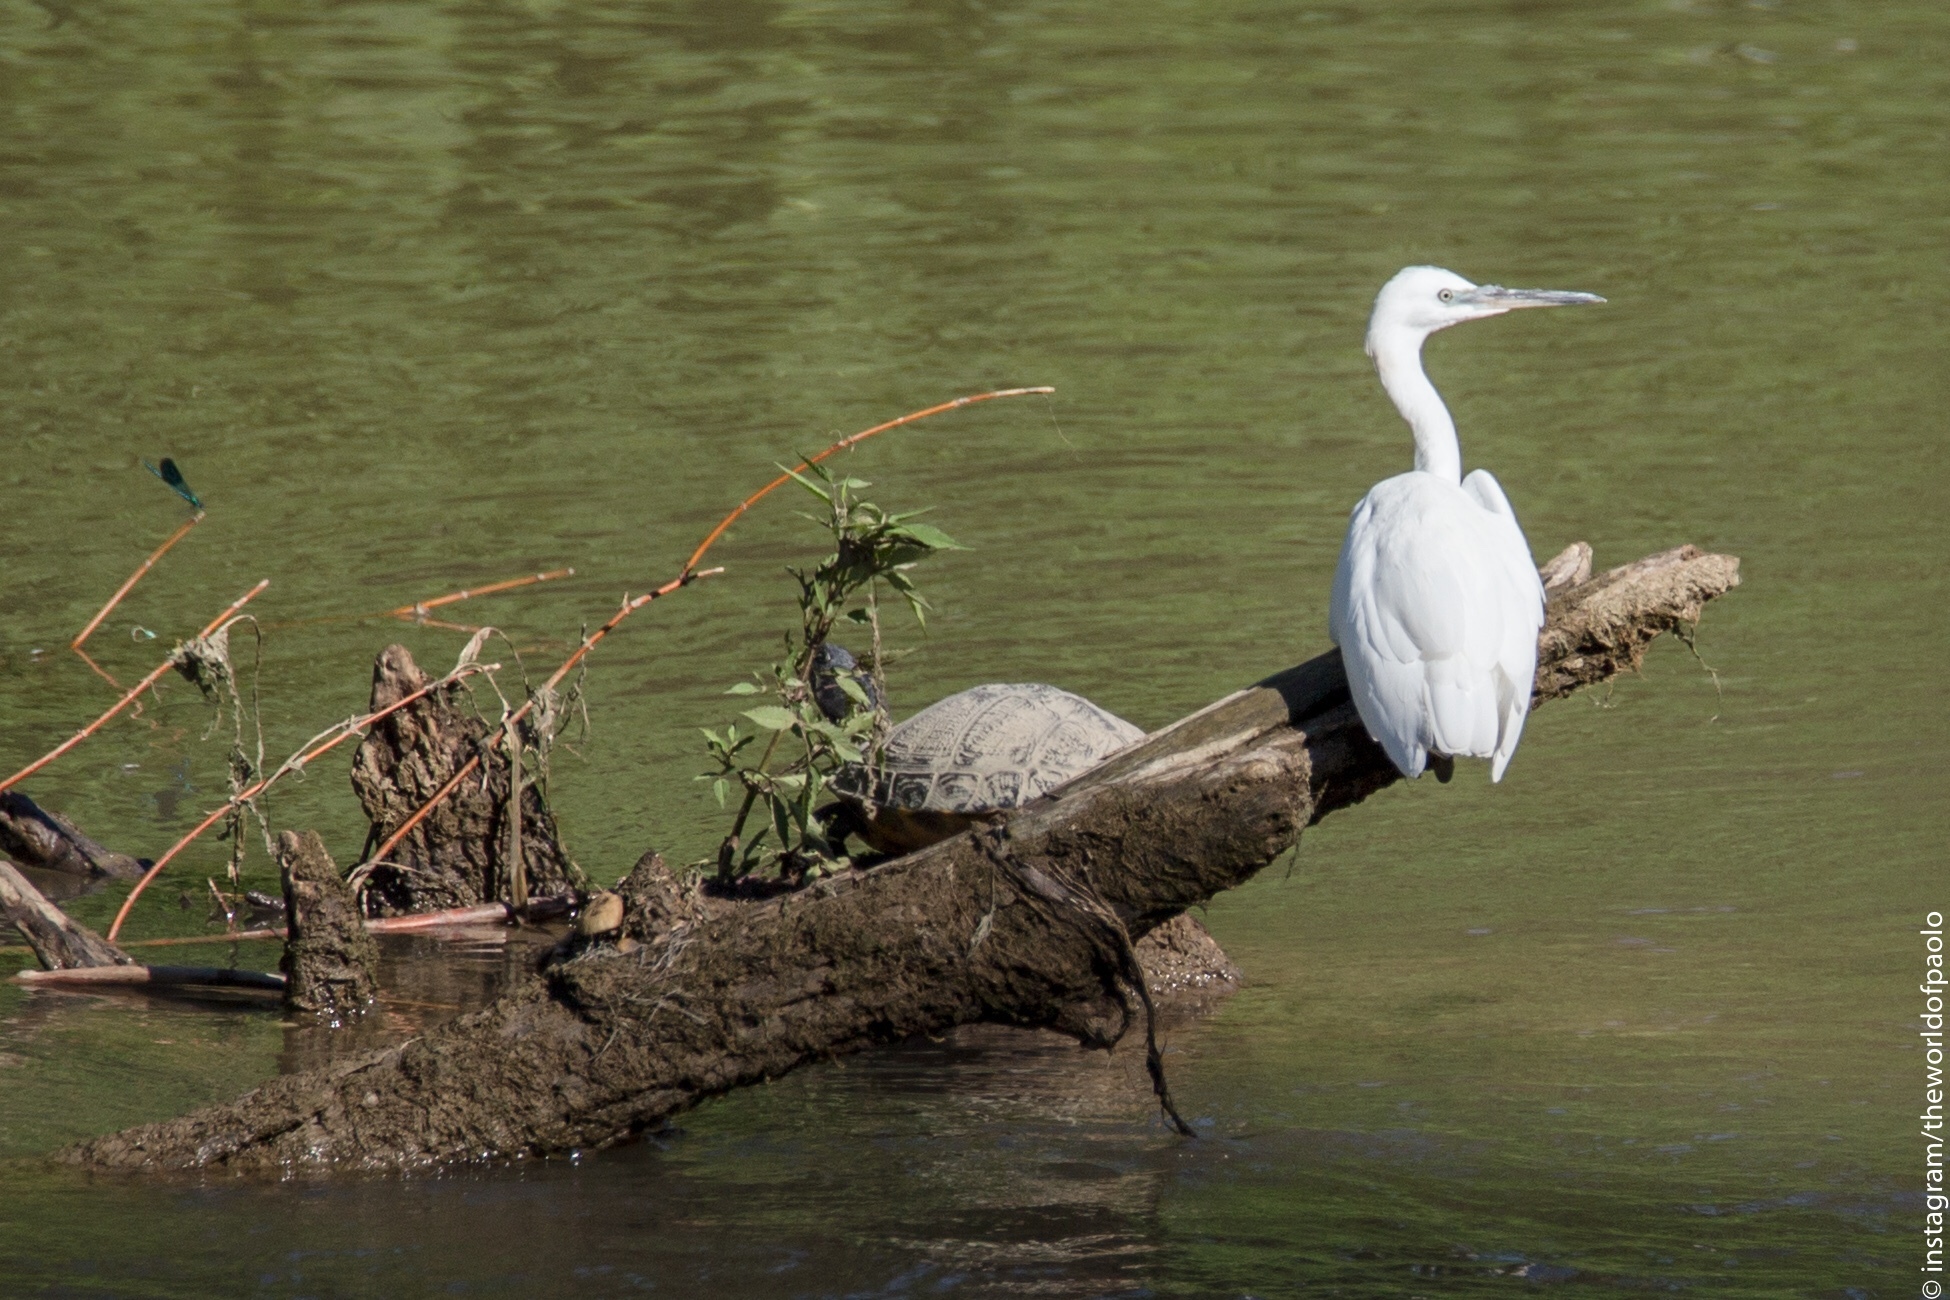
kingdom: Animalia
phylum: Chordata
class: Aves
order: Pelecaniformes
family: Ardeidae
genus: Egretta
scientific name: Egretta garzetta
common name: Little egret
